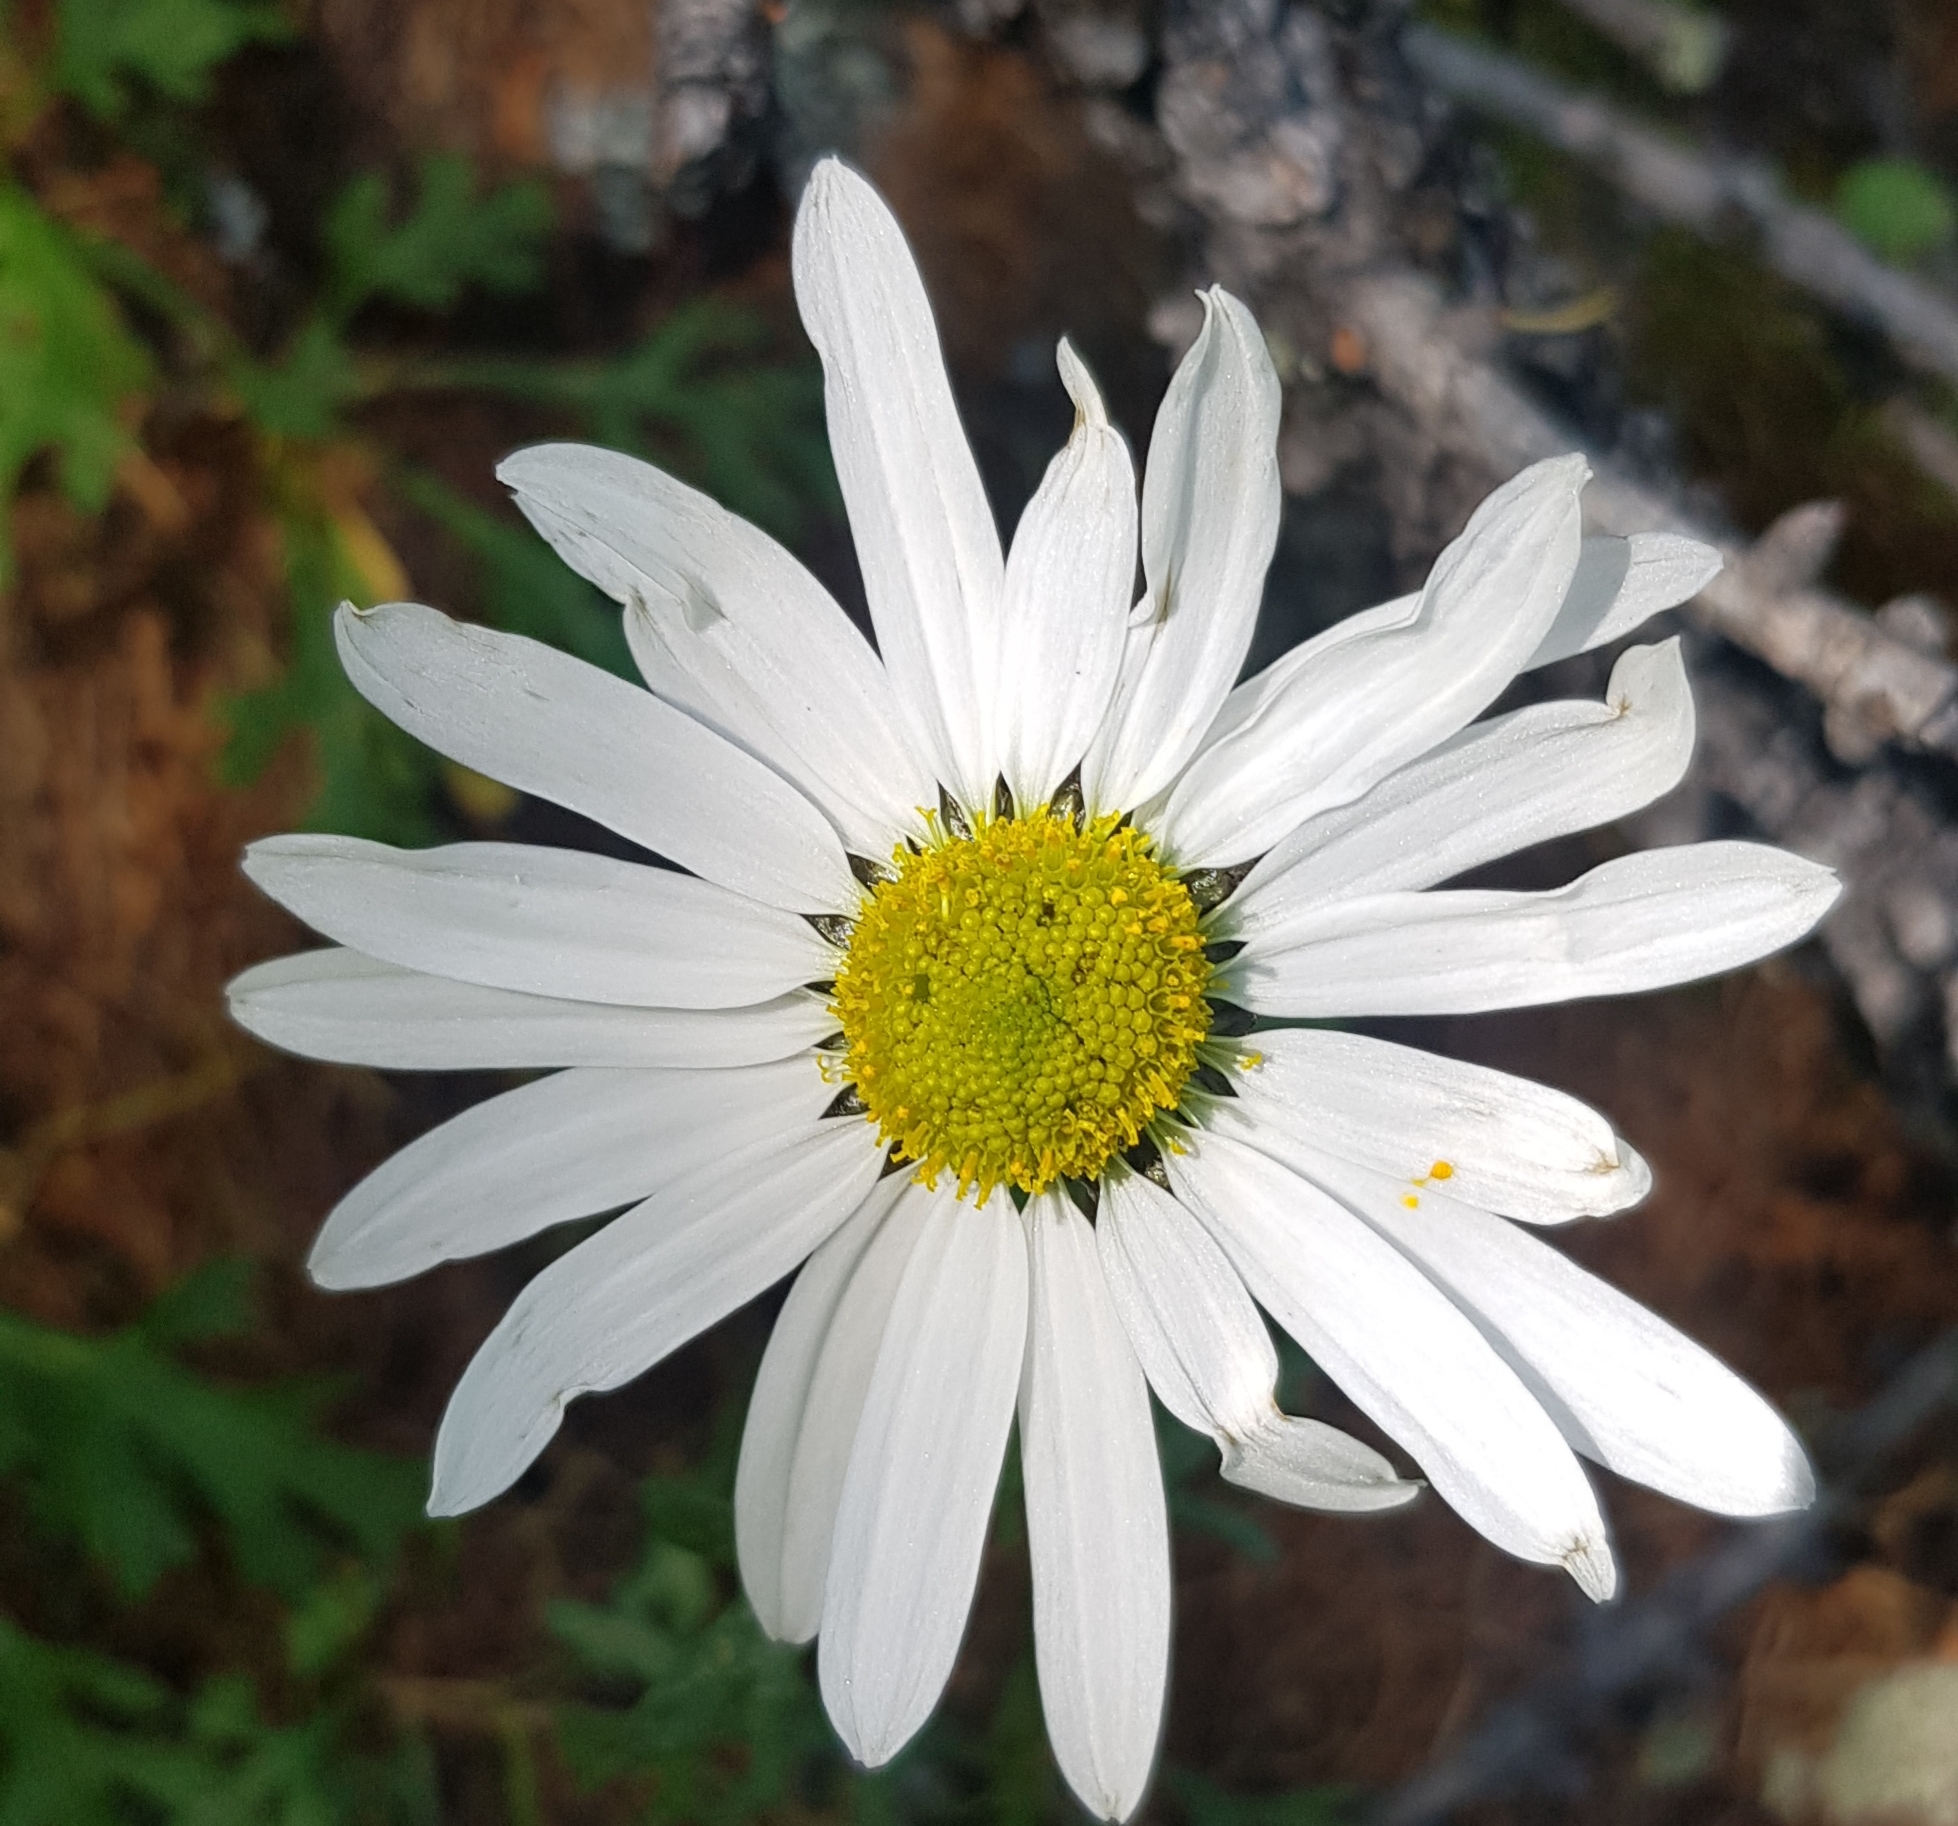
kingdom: Plantae
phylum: Tracheophyta
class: Magnoliopsida
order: Asterales
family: Asteraceae
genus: Chrysanthemum
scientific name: Chrysanthemum zawadzkii
